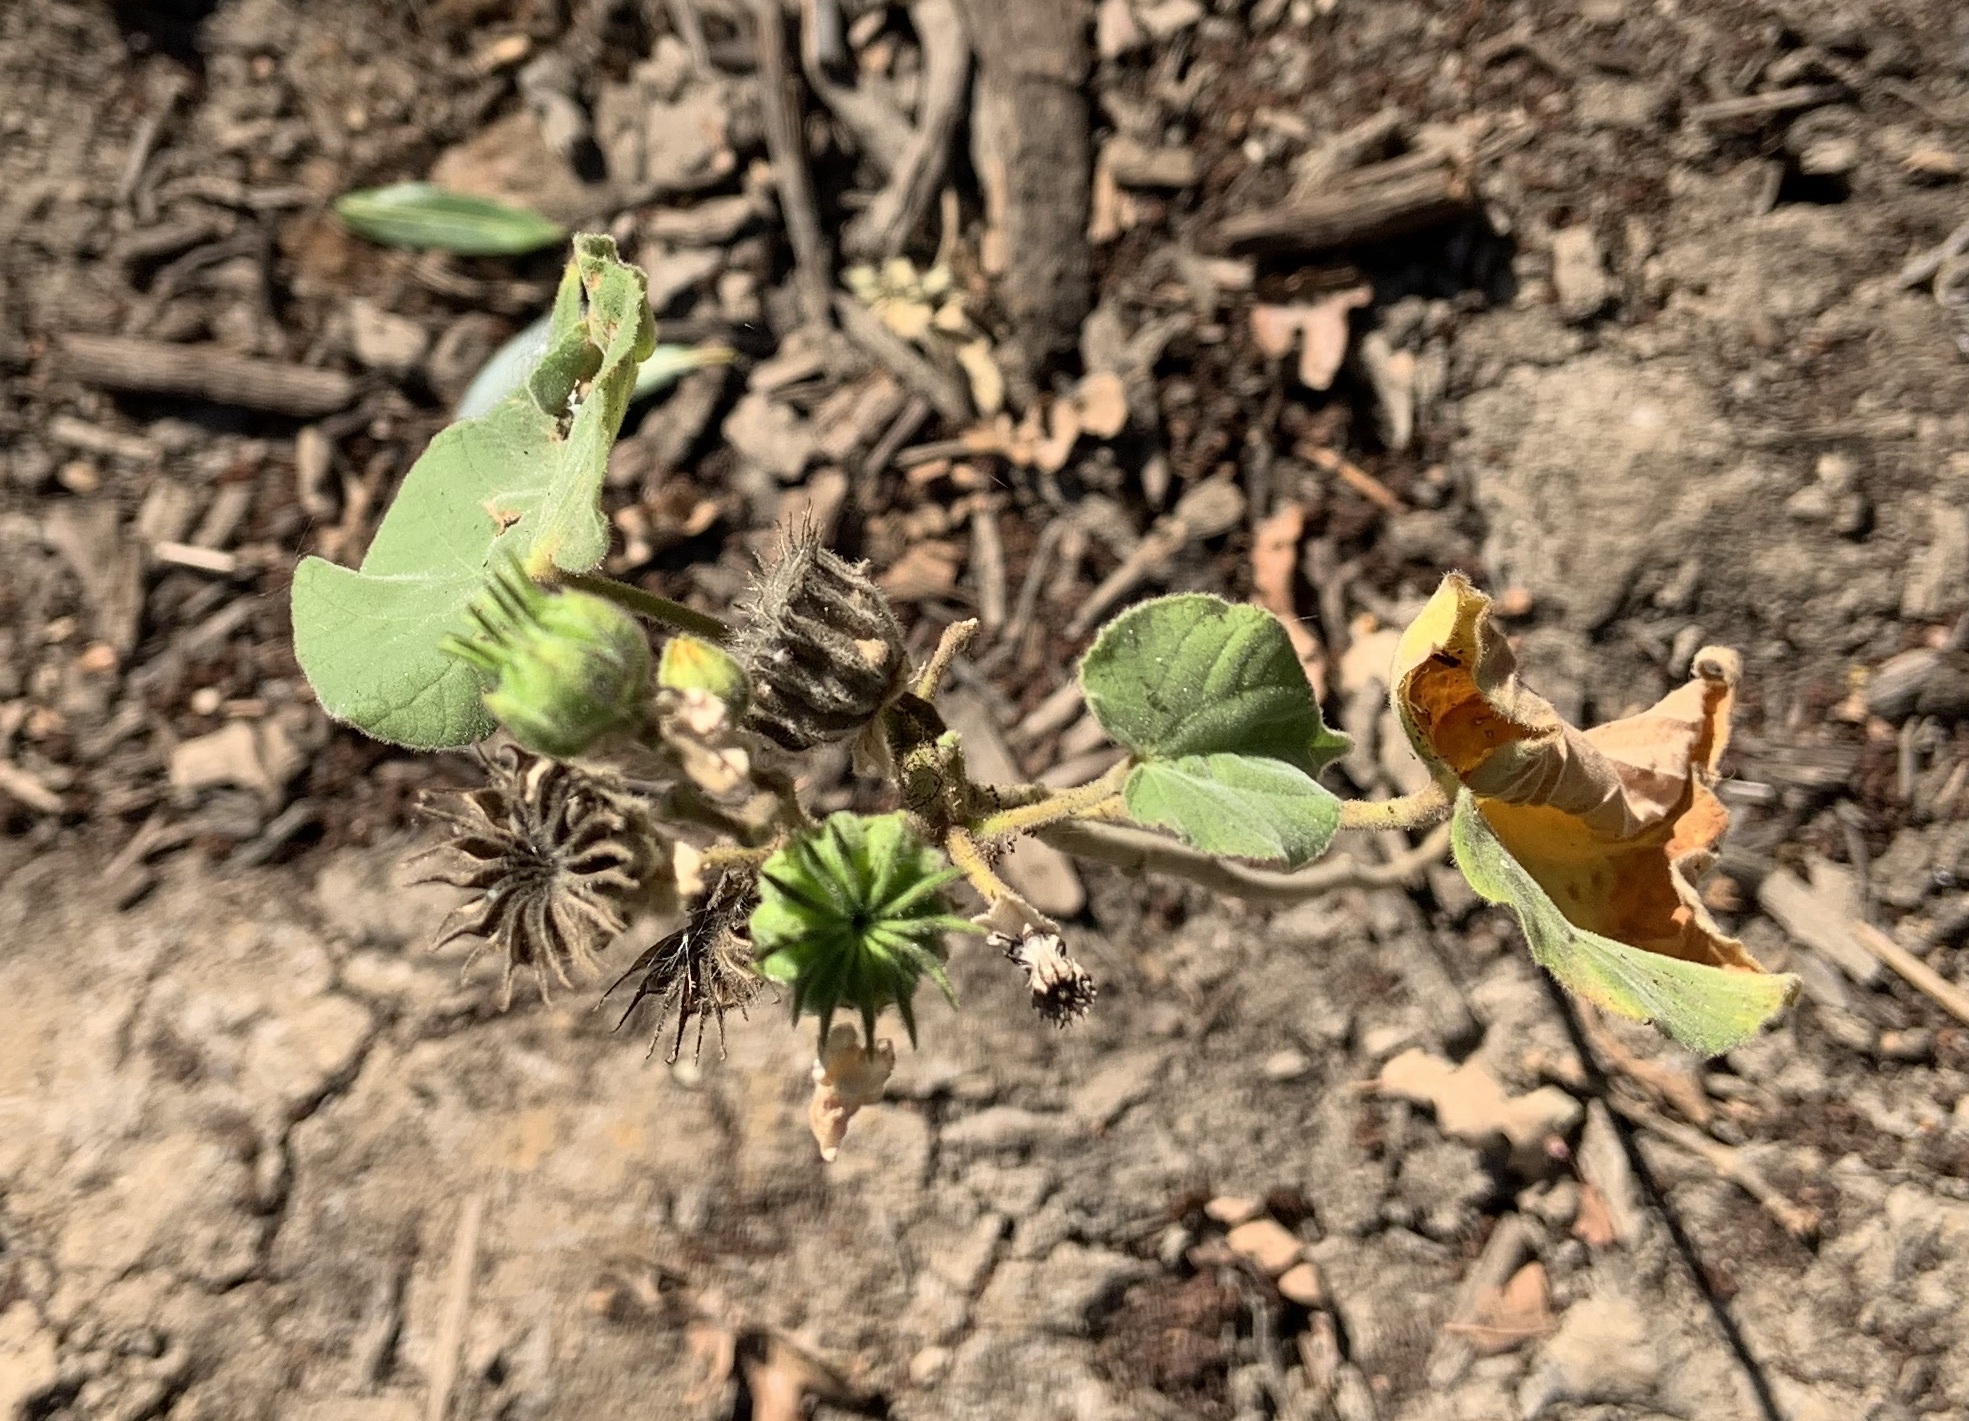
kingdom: Plantae
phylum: Tracheophyta
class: Magnoliopsida
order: Malvales
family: Malvaceae
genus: Abutilon
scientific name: Abutilon theophrasti
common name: Velvetleaf
